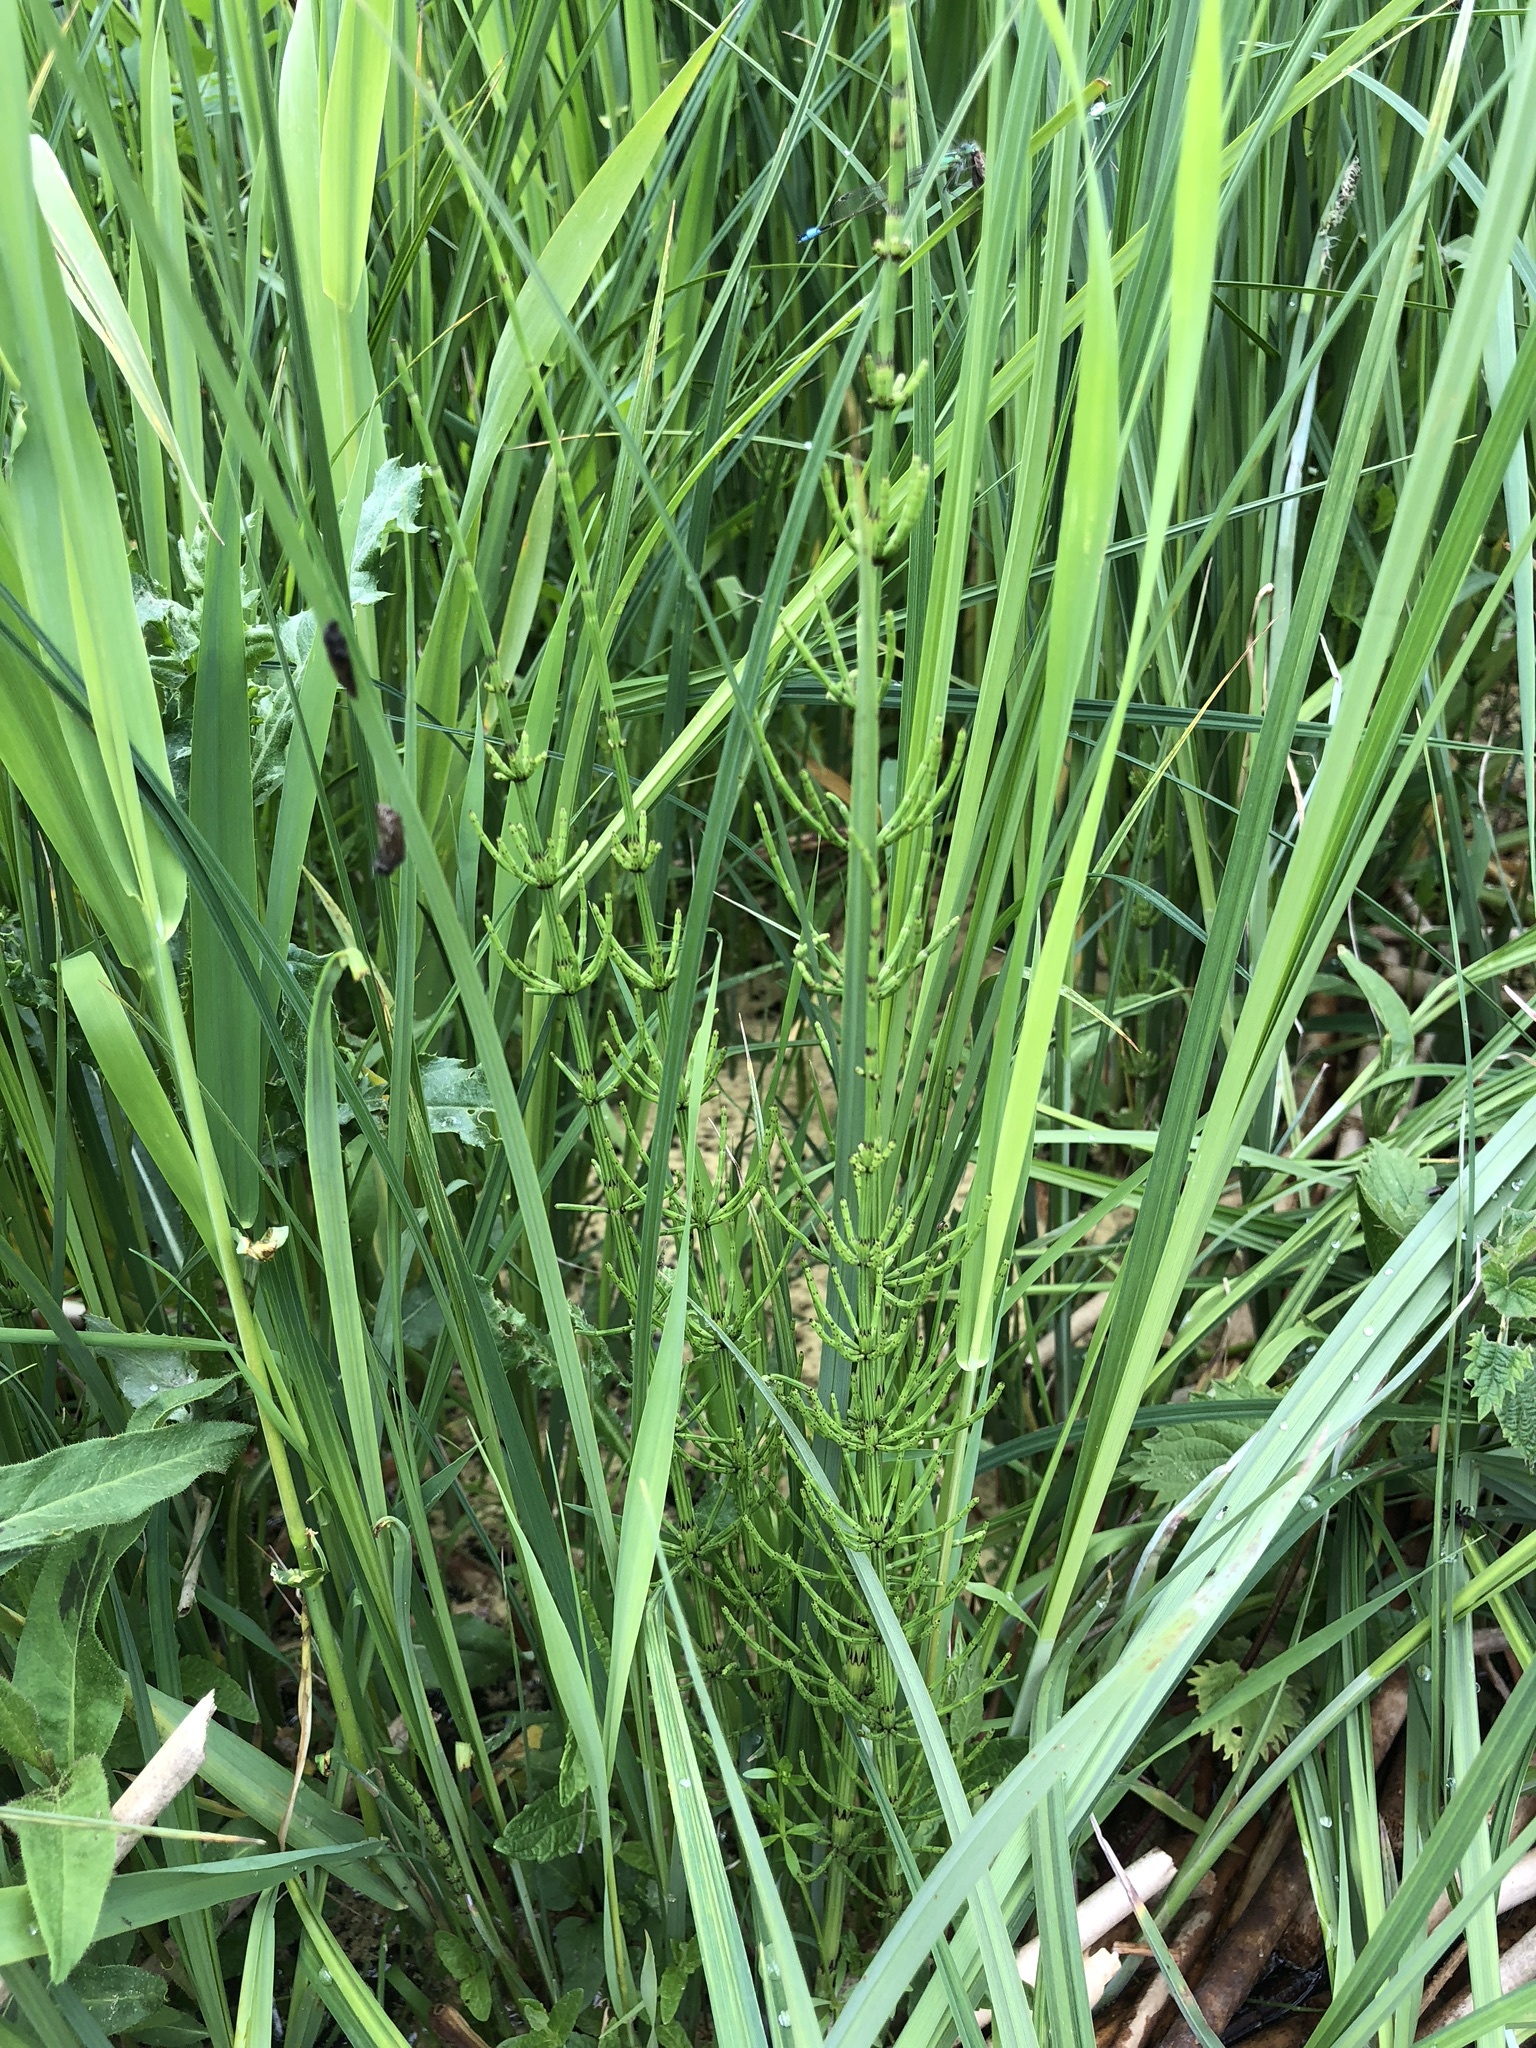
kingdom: Plantae
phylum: Tracheophyta
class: Polypodiopsida
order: Equisetales
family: Equisetaceae
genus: Equisetum
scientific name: Equisetum fluviatile
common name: Water horsetail
